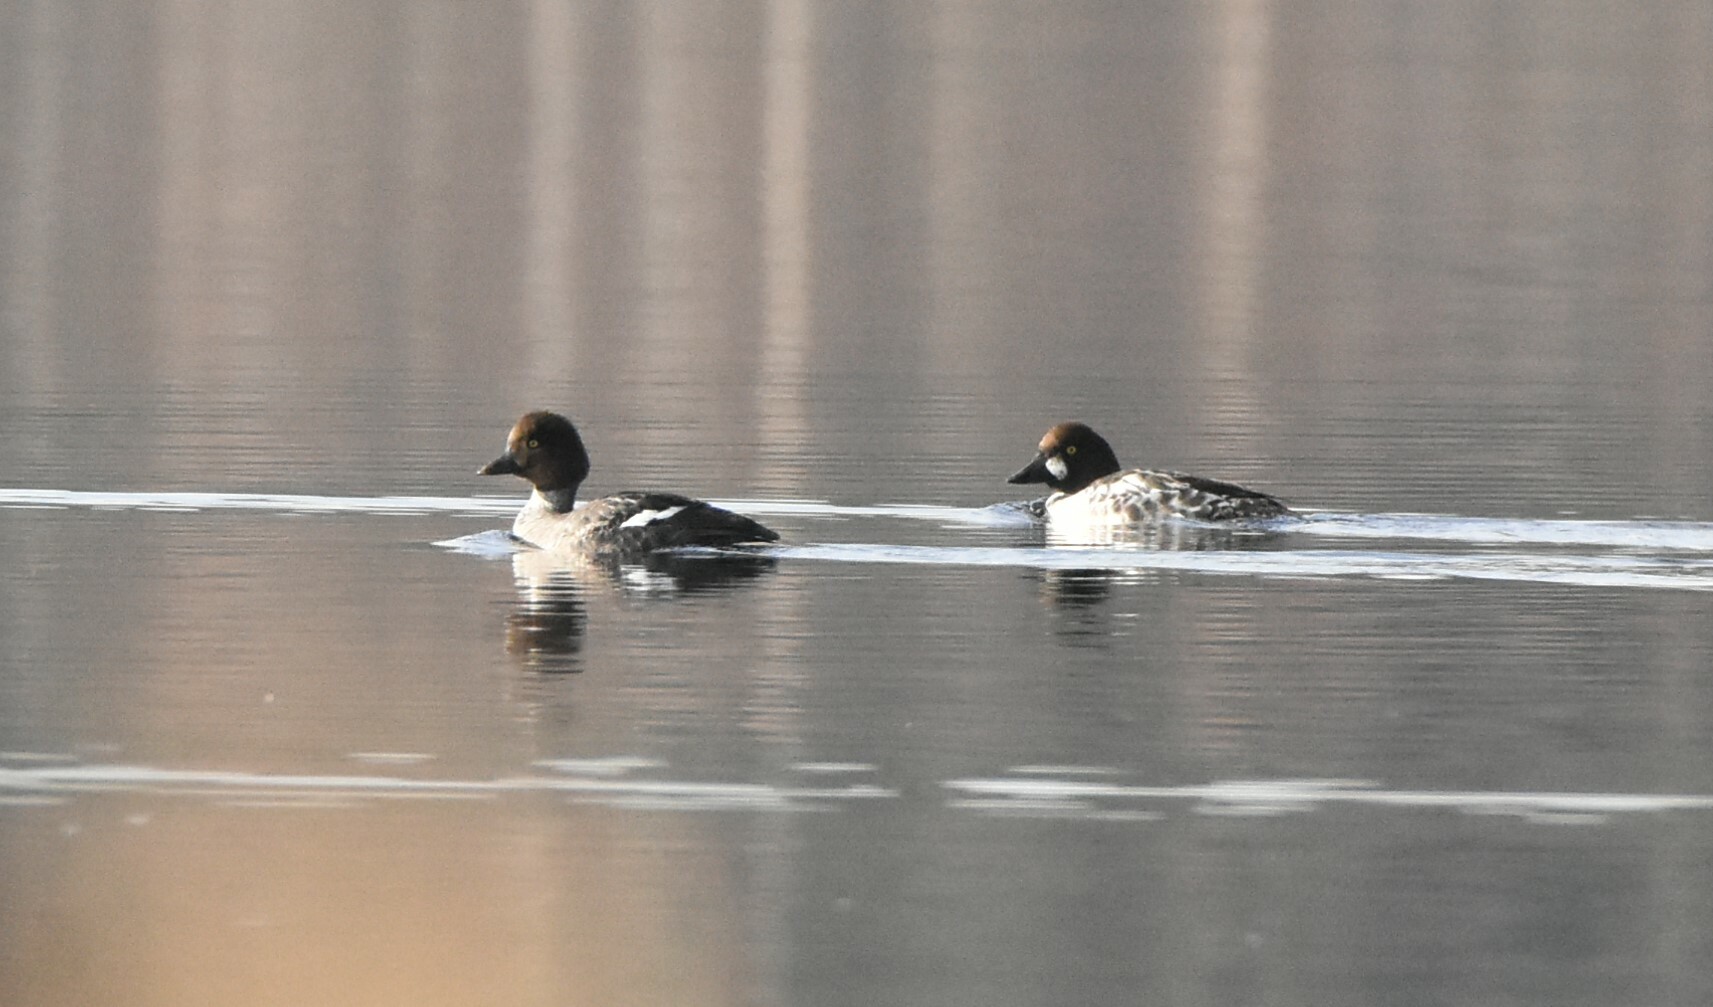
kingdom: Animalia
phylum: Chordata
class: Aves
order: Anseriformes
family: Anatidae
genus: Bucephala
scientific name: Bucephala clangula
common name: Common goldeneye
